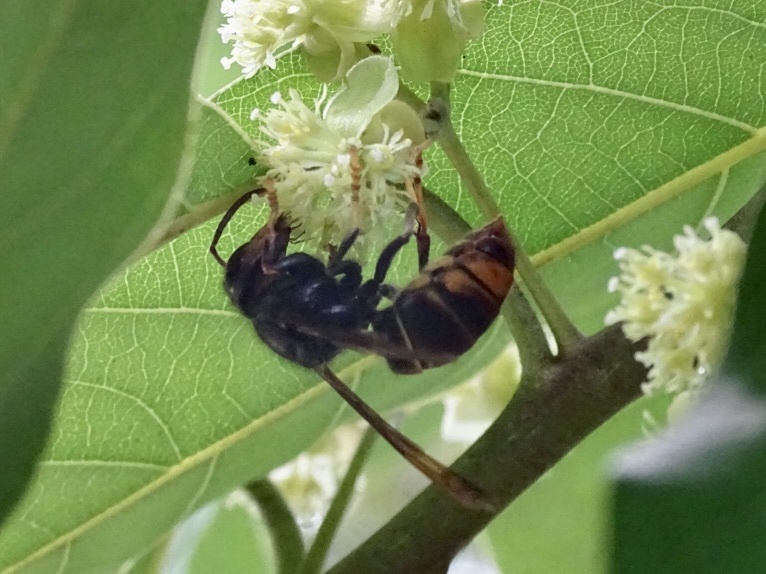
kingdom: Animalia
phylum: Arthropoda
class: Insecta
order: Hymenoptera
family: Vespidae
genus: Vespa
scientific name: Vespa velutina
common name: Asian hornet
